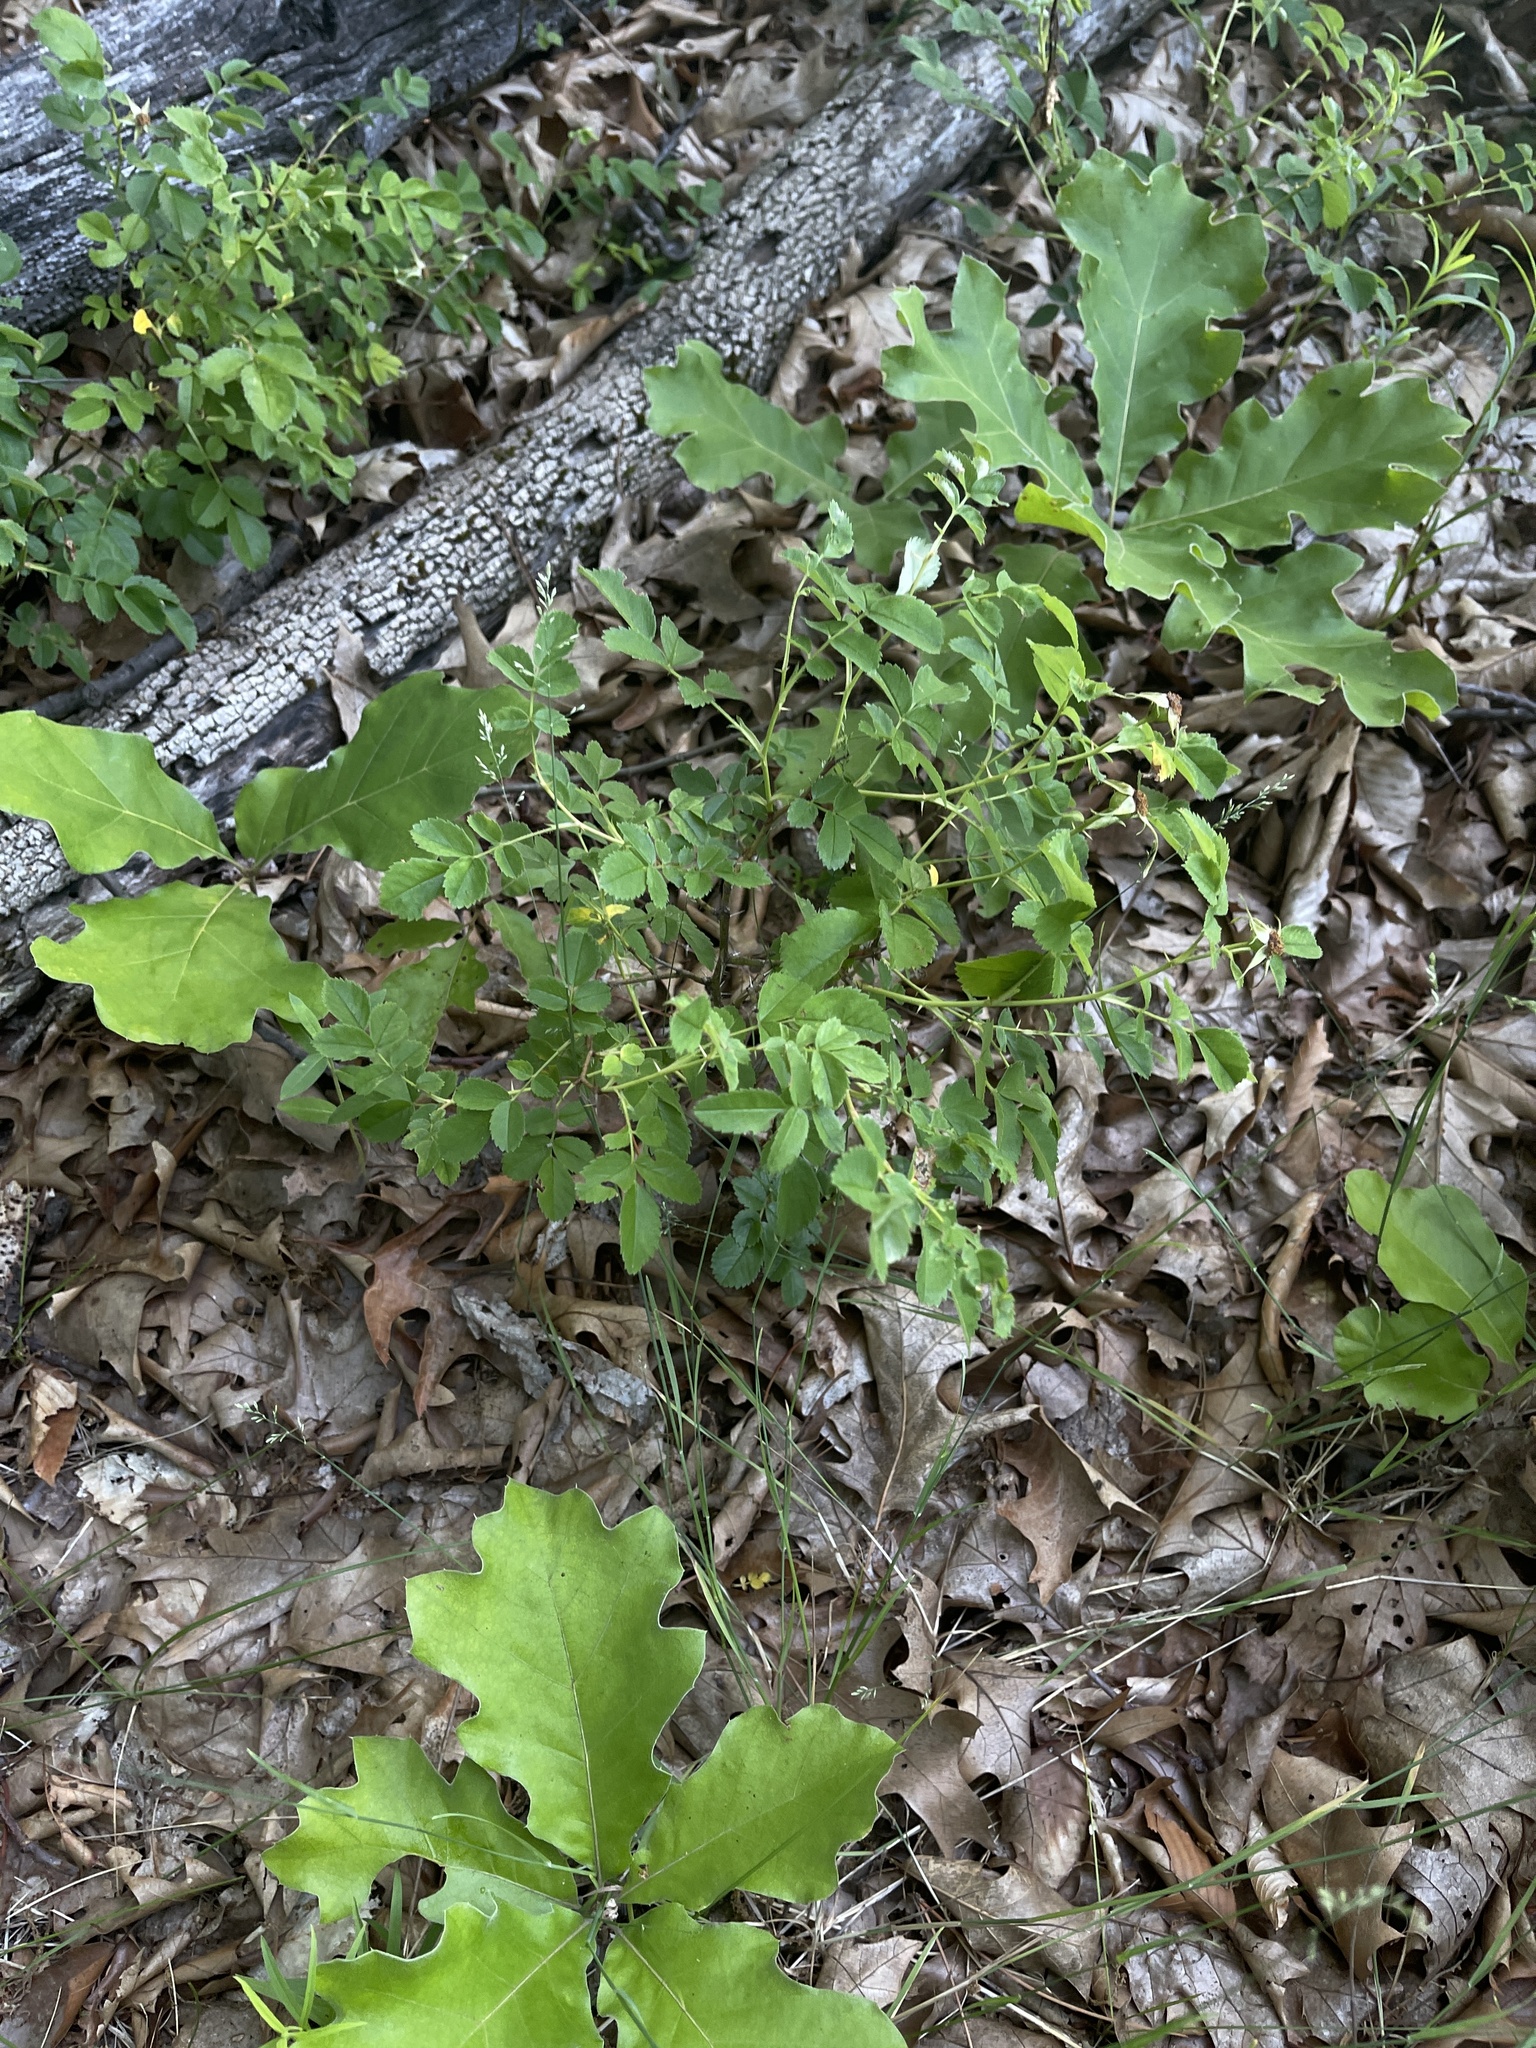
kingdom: Plantae
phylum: Tracheophyta
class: Magnoliopsida
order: Rosales
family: Rosaceae
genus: Rosa
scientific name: Rosa carolina
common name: Pasture rose
